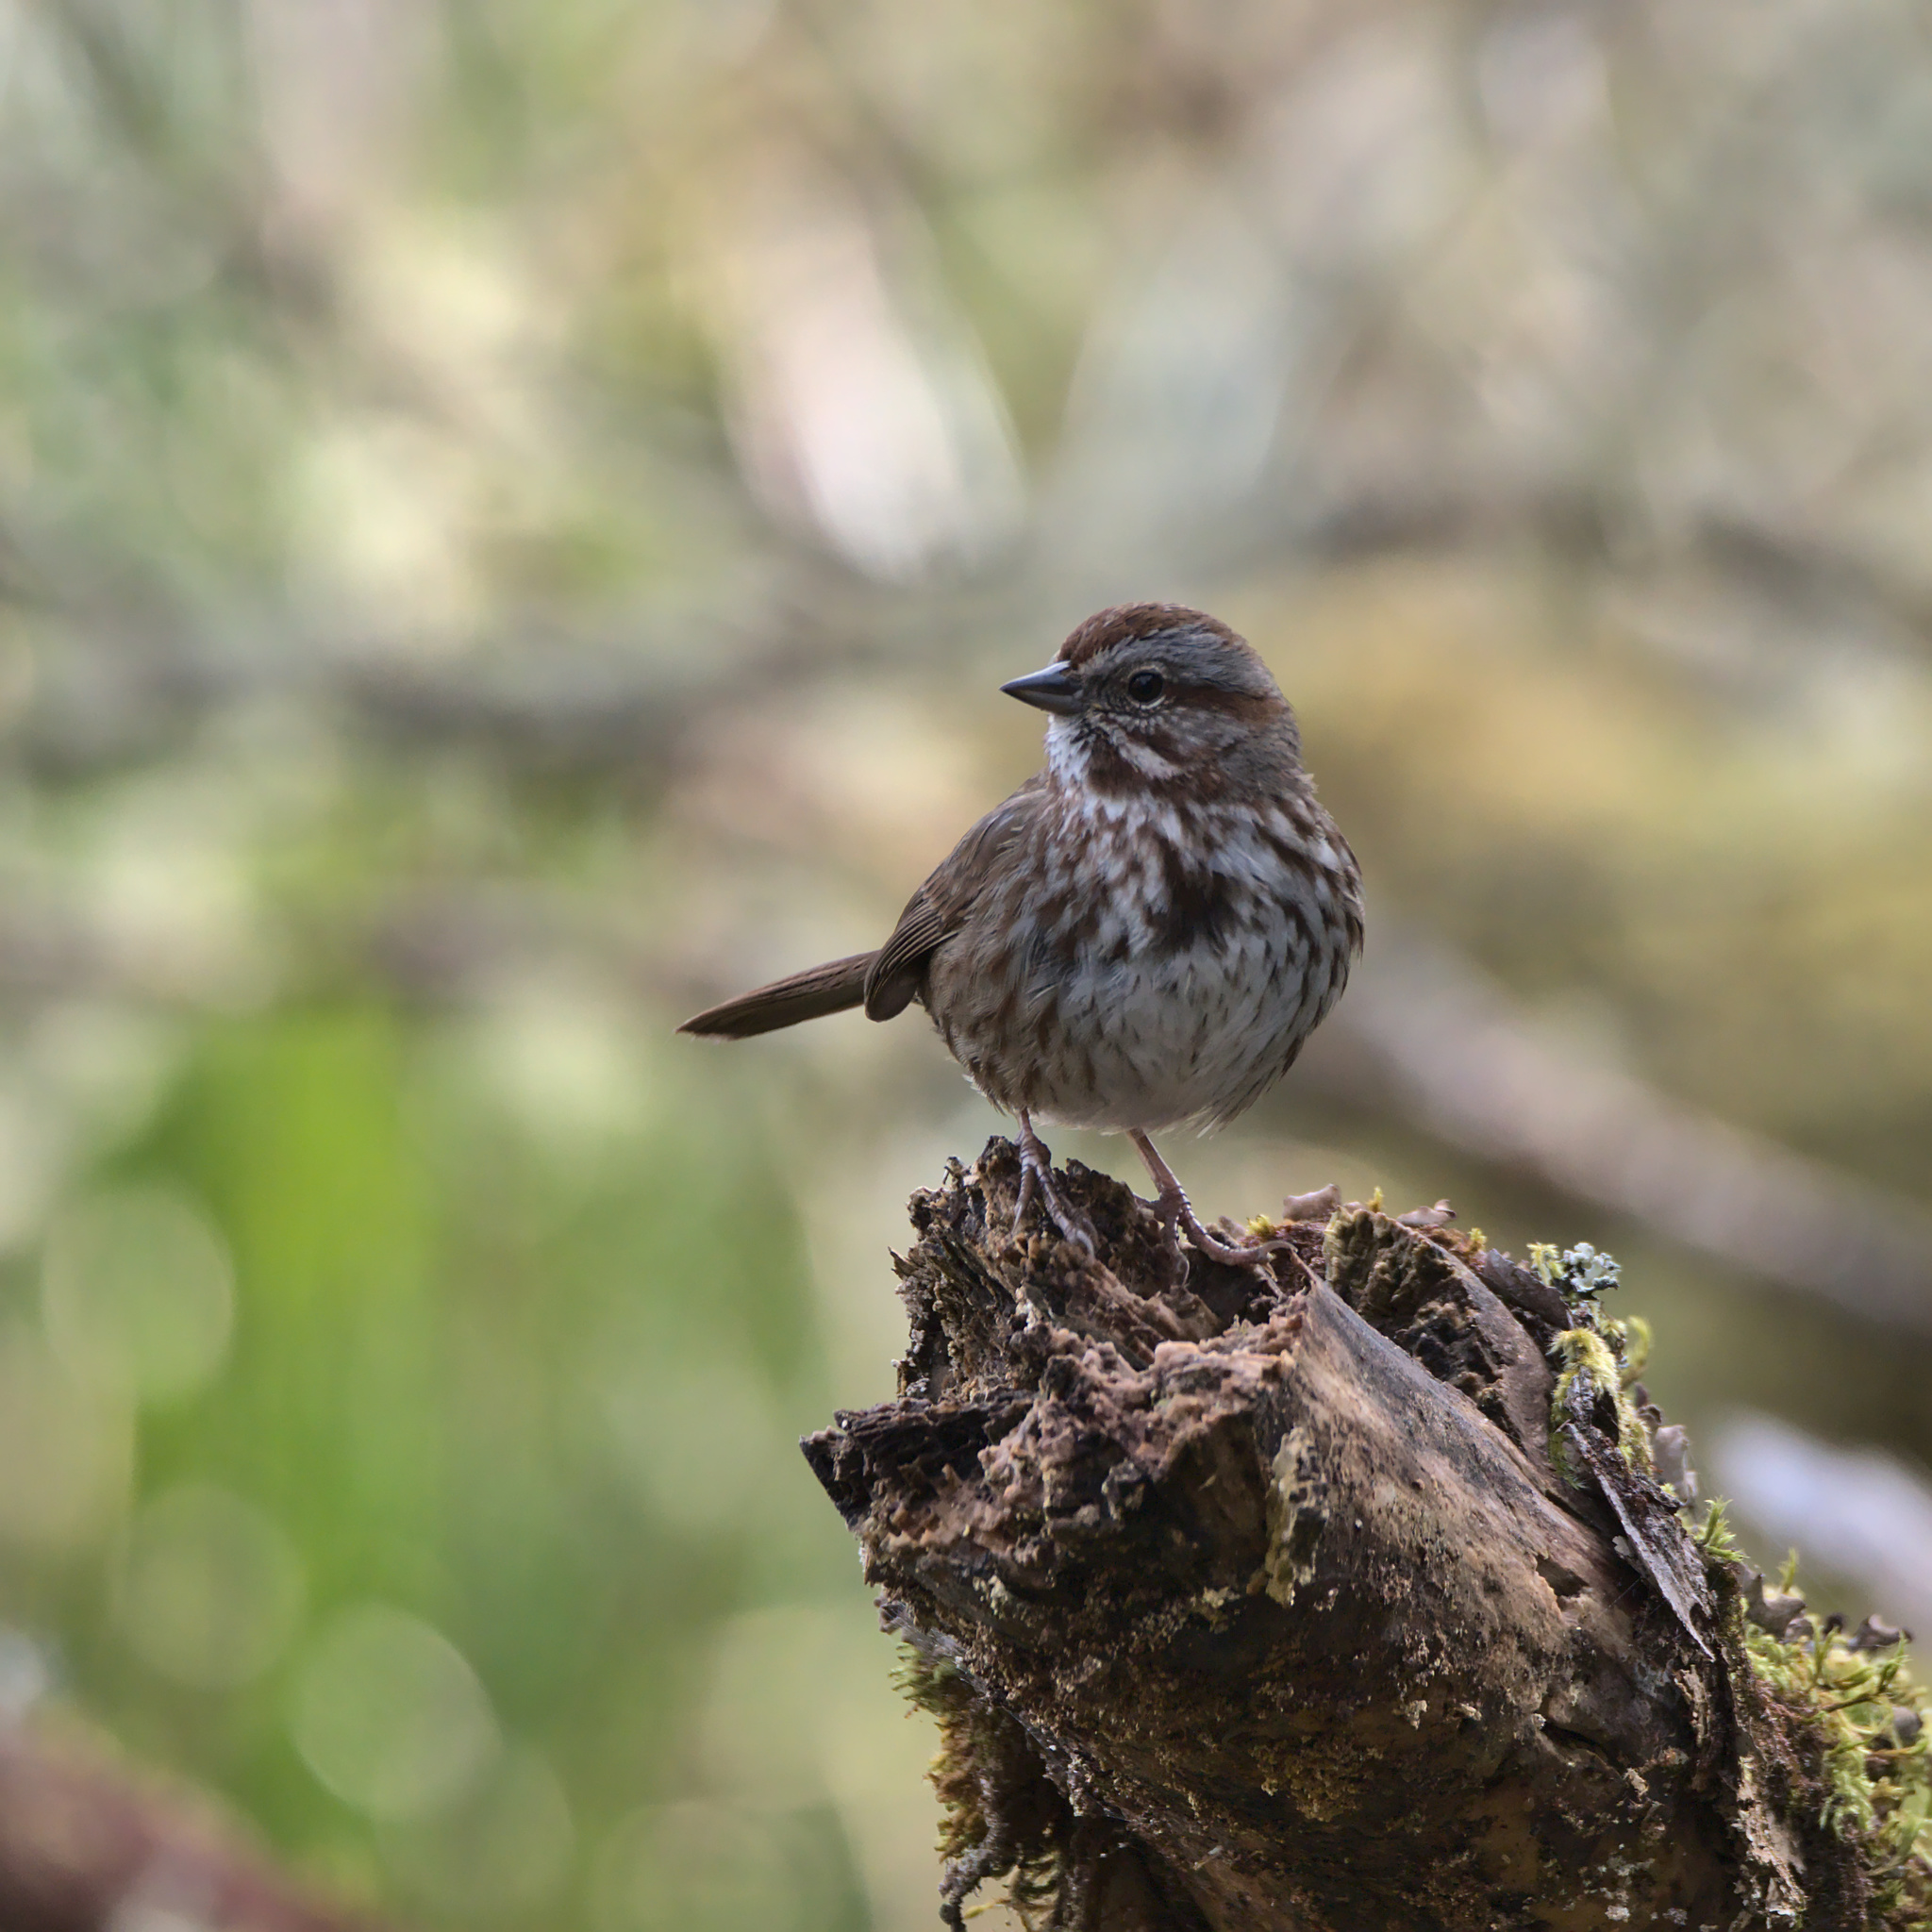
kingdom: Animalia
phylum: Chordata
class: Aves
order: Passeriformes
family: Passerellidae
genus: Melospiza
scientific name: Melospiza melodia
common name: Song sparrow
